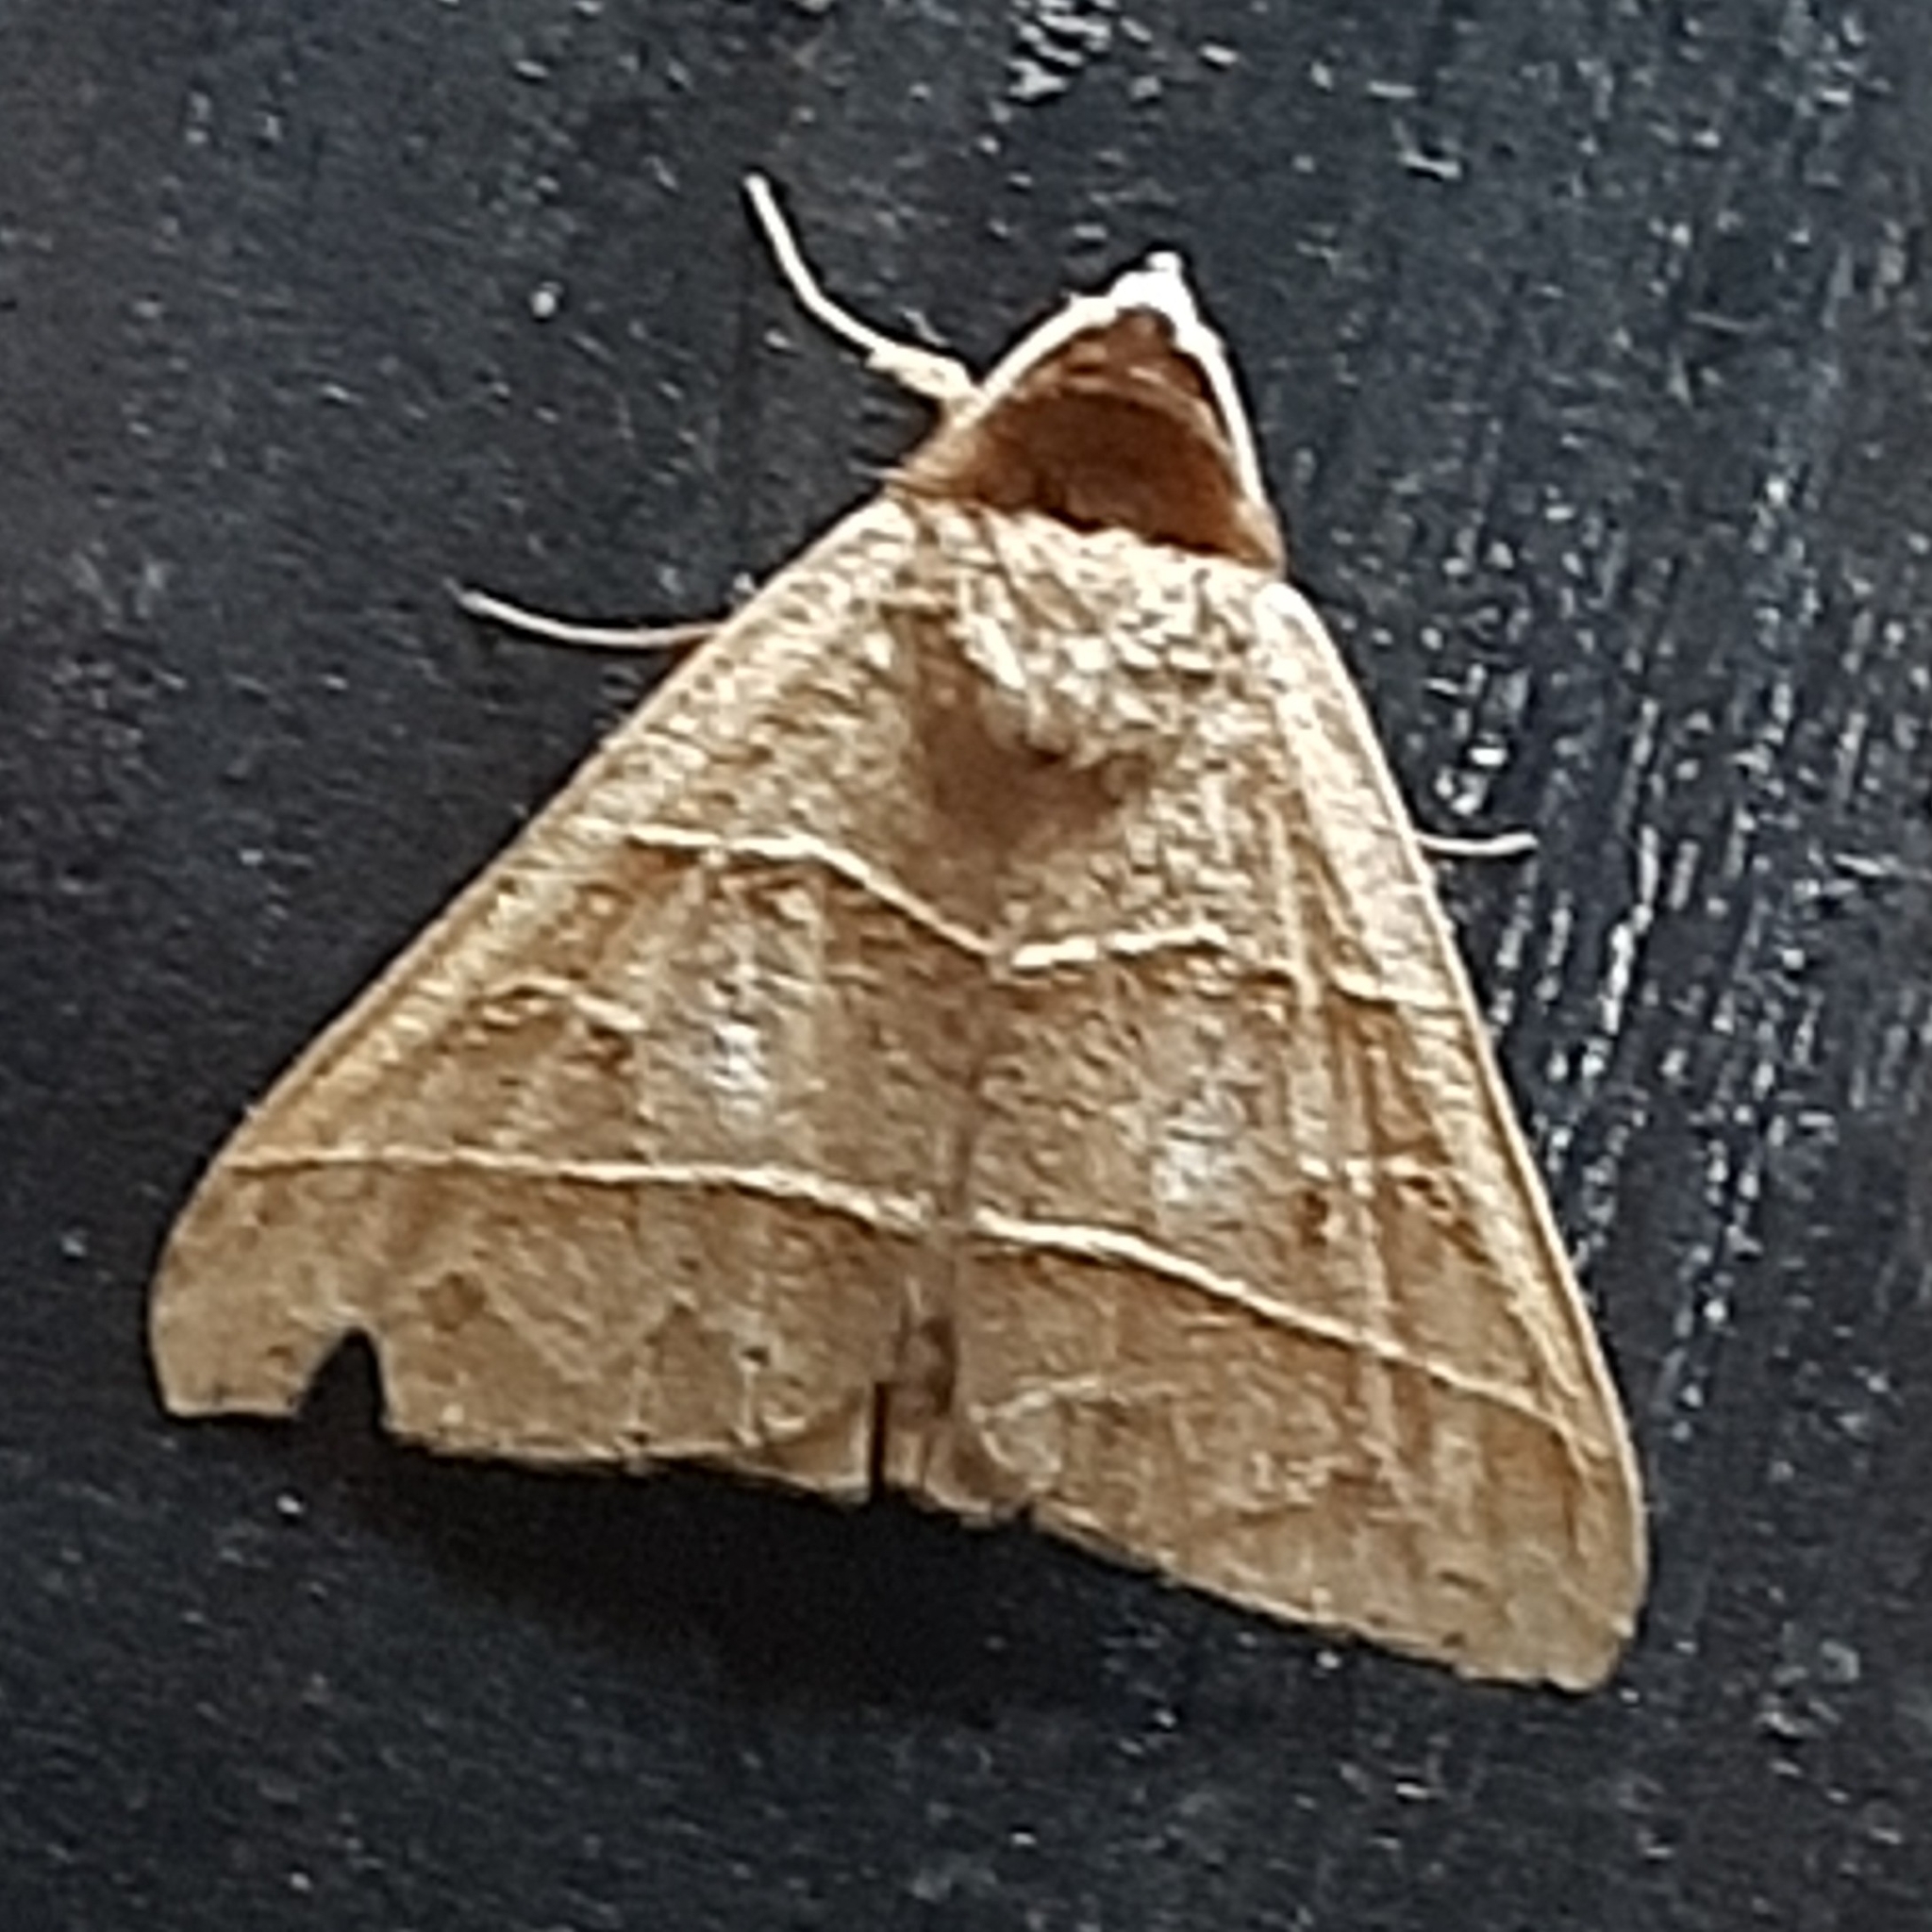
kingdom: Animalia
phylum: Arthropoda
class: Insecta
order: Lepidoptera
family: Erebidae
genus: Baniana
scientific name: Baniana ostia
